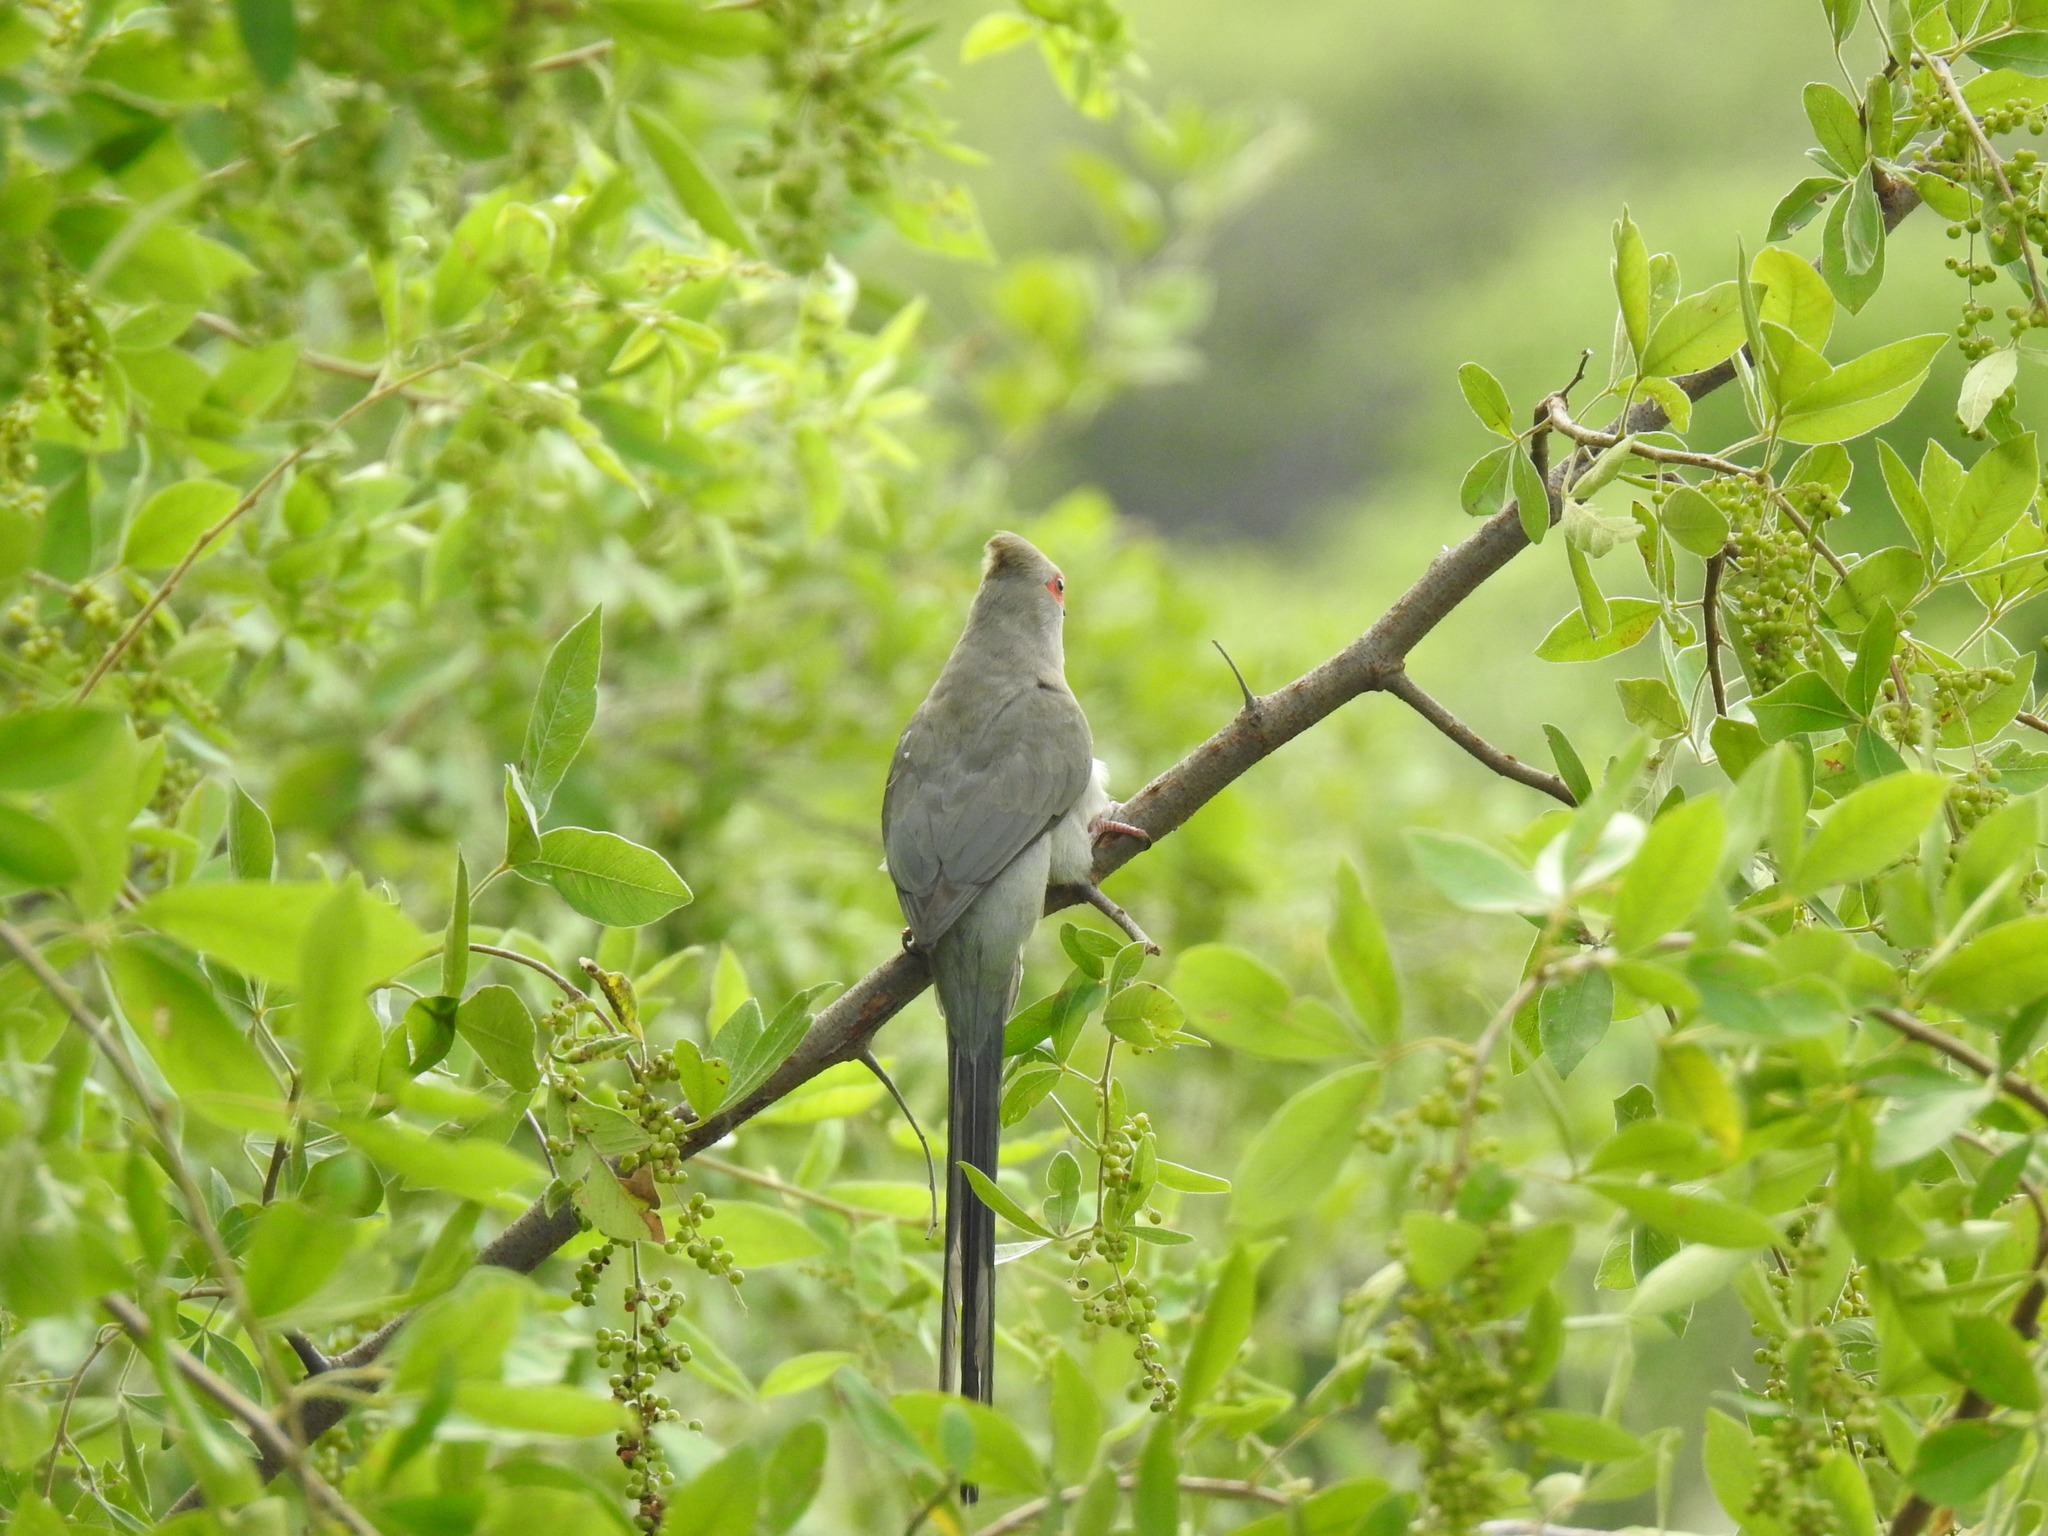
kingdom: Animalia
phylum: Chordata
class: Aves
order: Coliiformes
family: Coliidae
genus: Urocolius
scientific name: Urocolius indicus
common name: Red-faced mousebird
